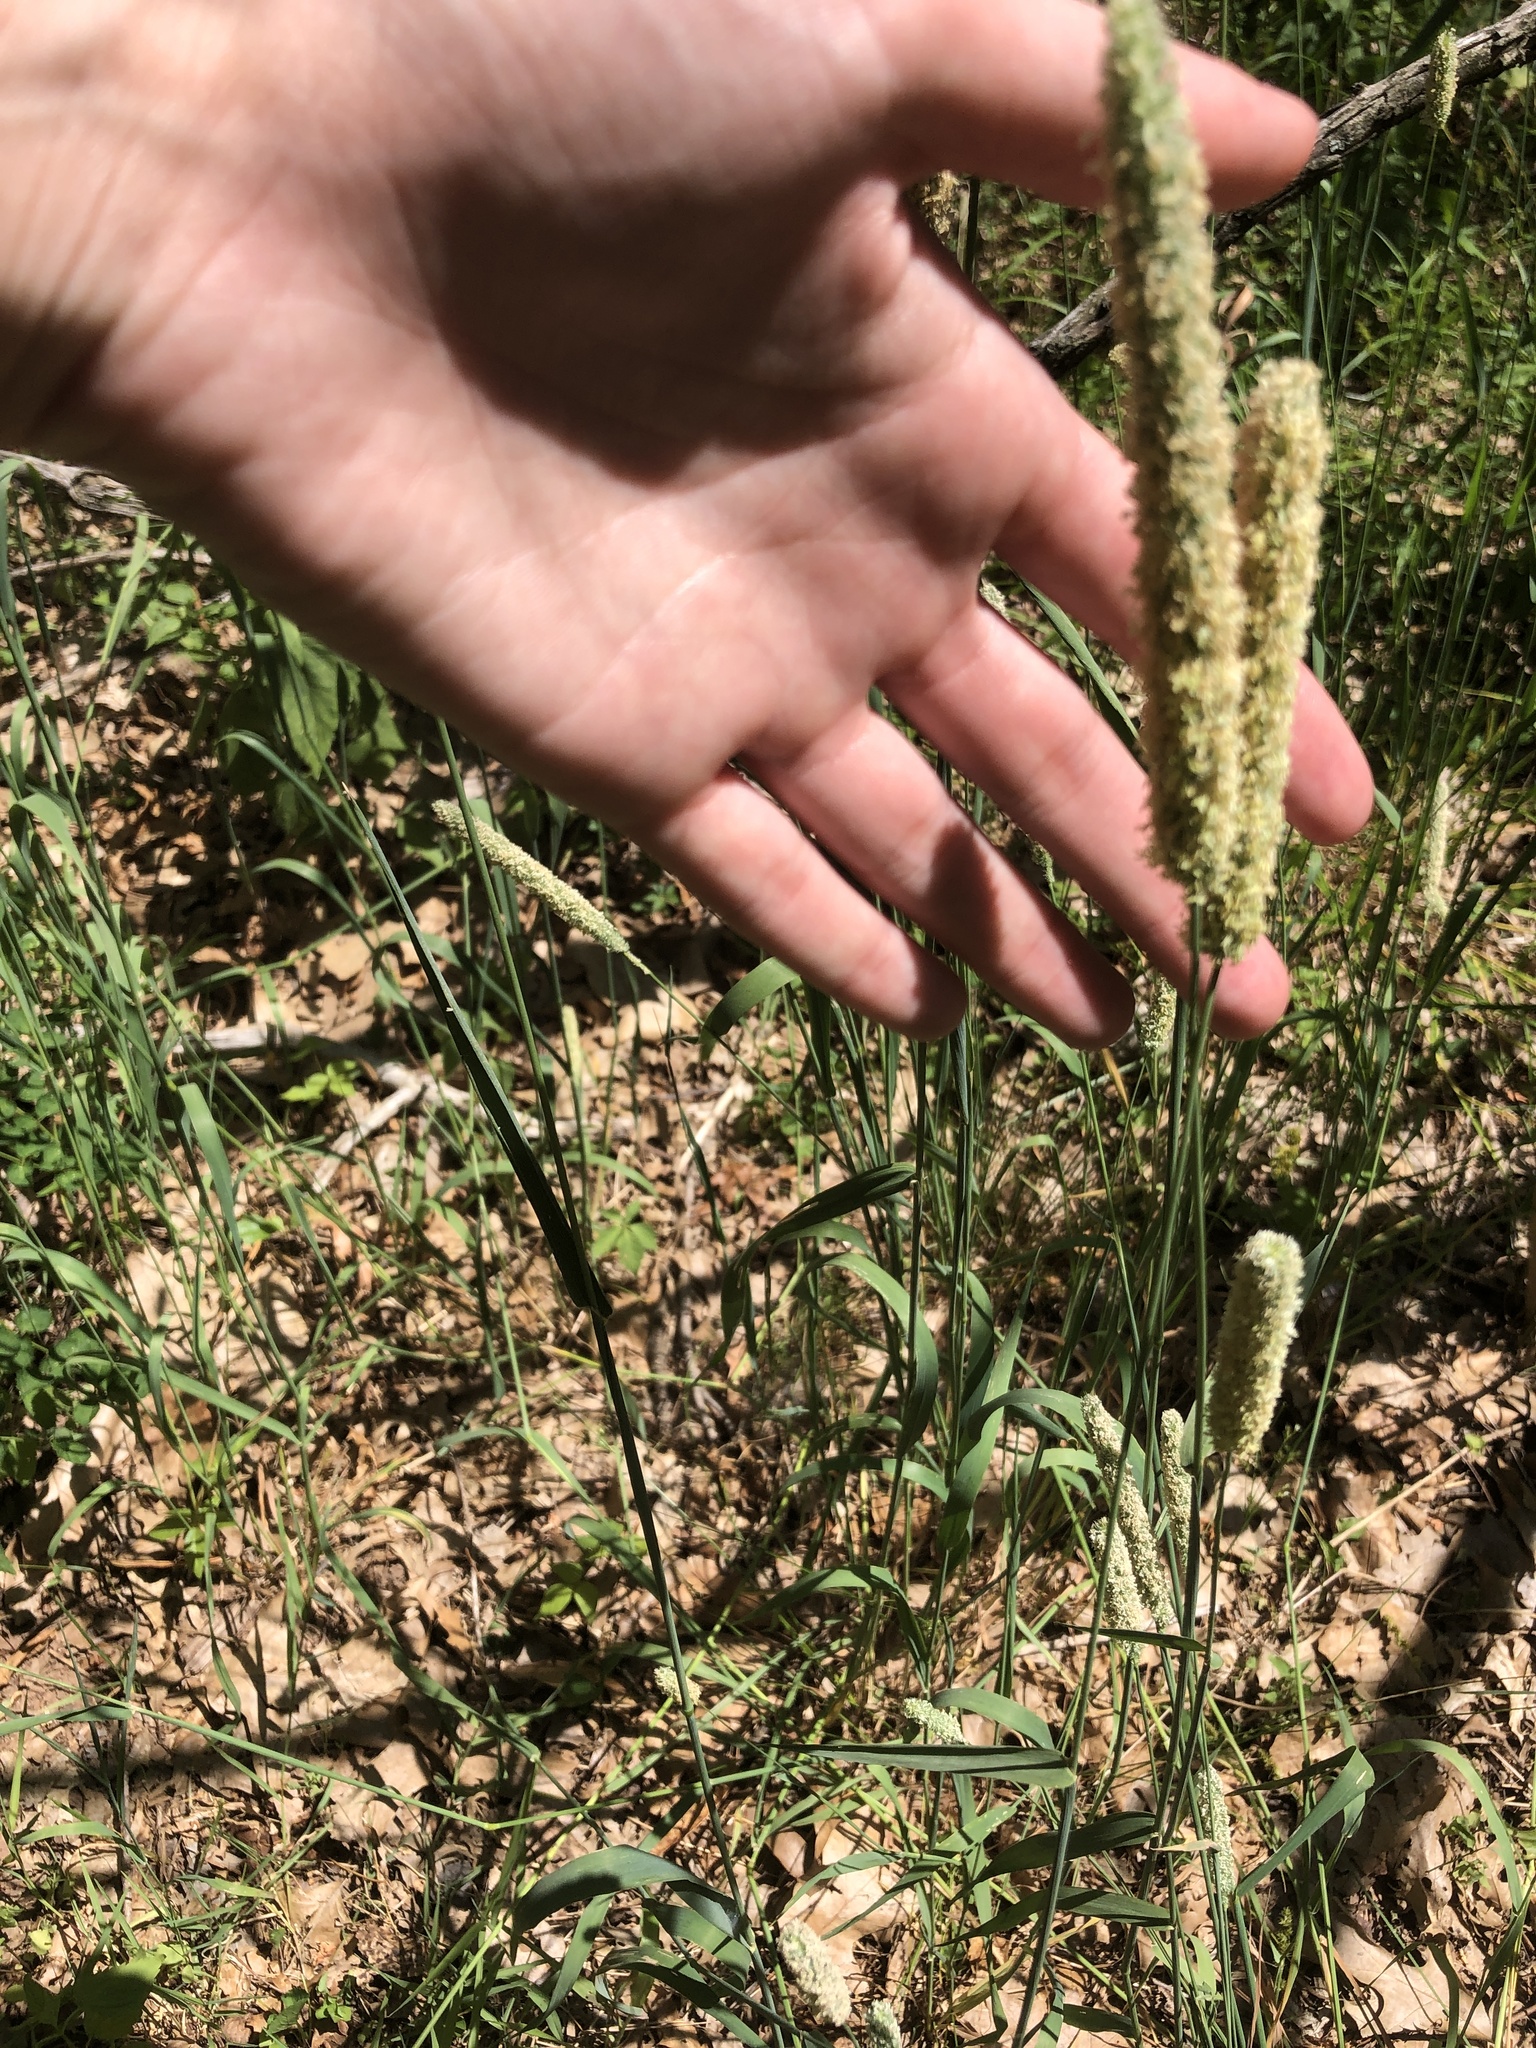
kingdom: Plantae
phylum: Tracheophyta
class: Liliopsida
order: Poales
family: Poaceae
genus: Phleum
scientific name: Phleum pratense
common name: Timothy grass
